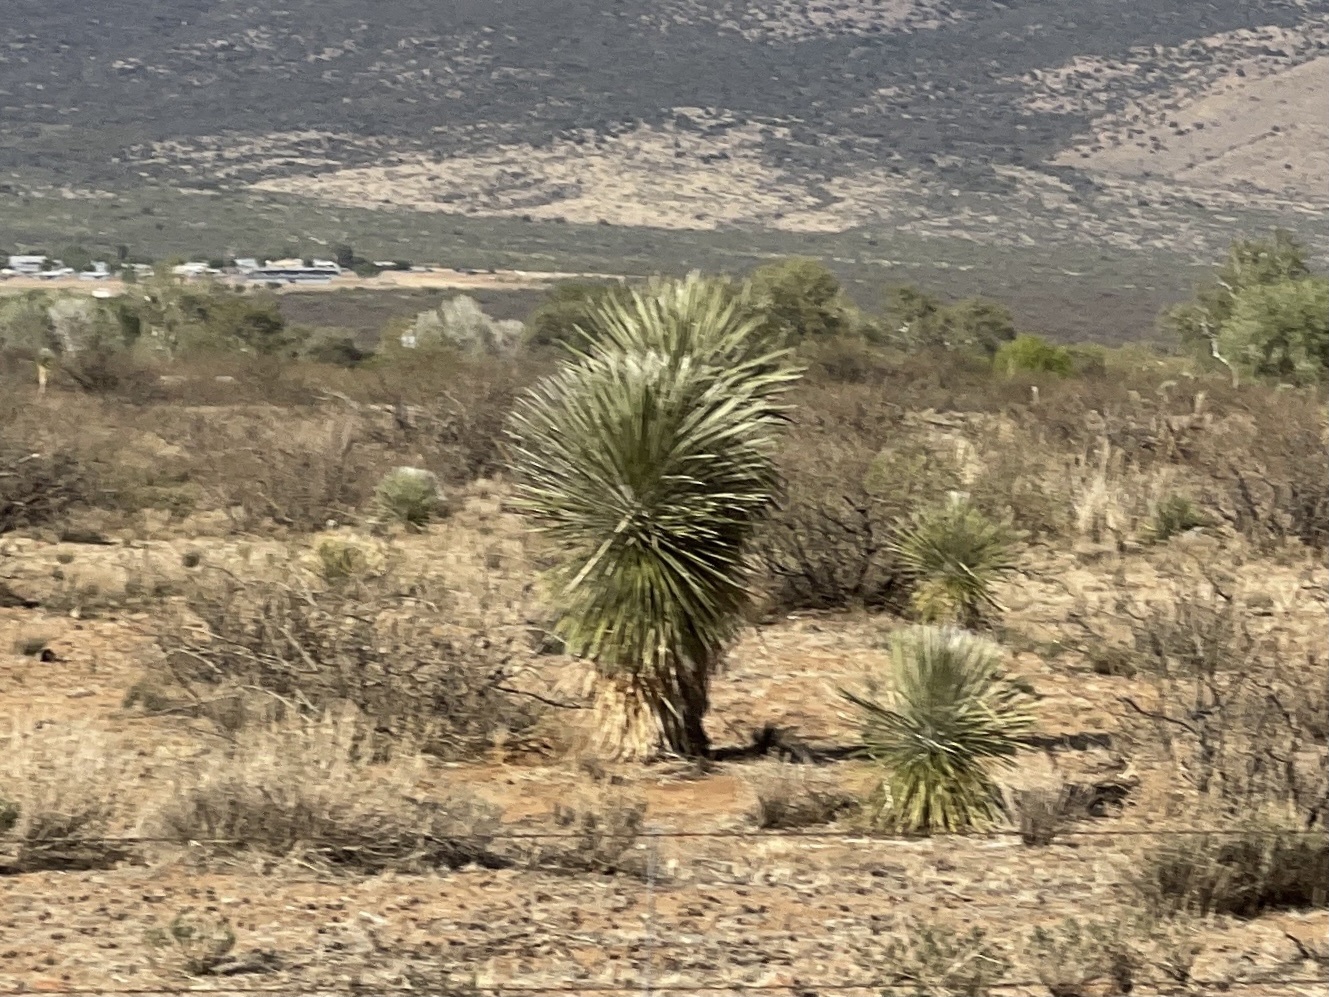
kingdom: Plantae
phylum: Tracheophyta
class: Liliopsida
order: Asparagales
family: Asparagaceae
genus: Yucca
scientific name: Yucca elata
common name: Palmella
